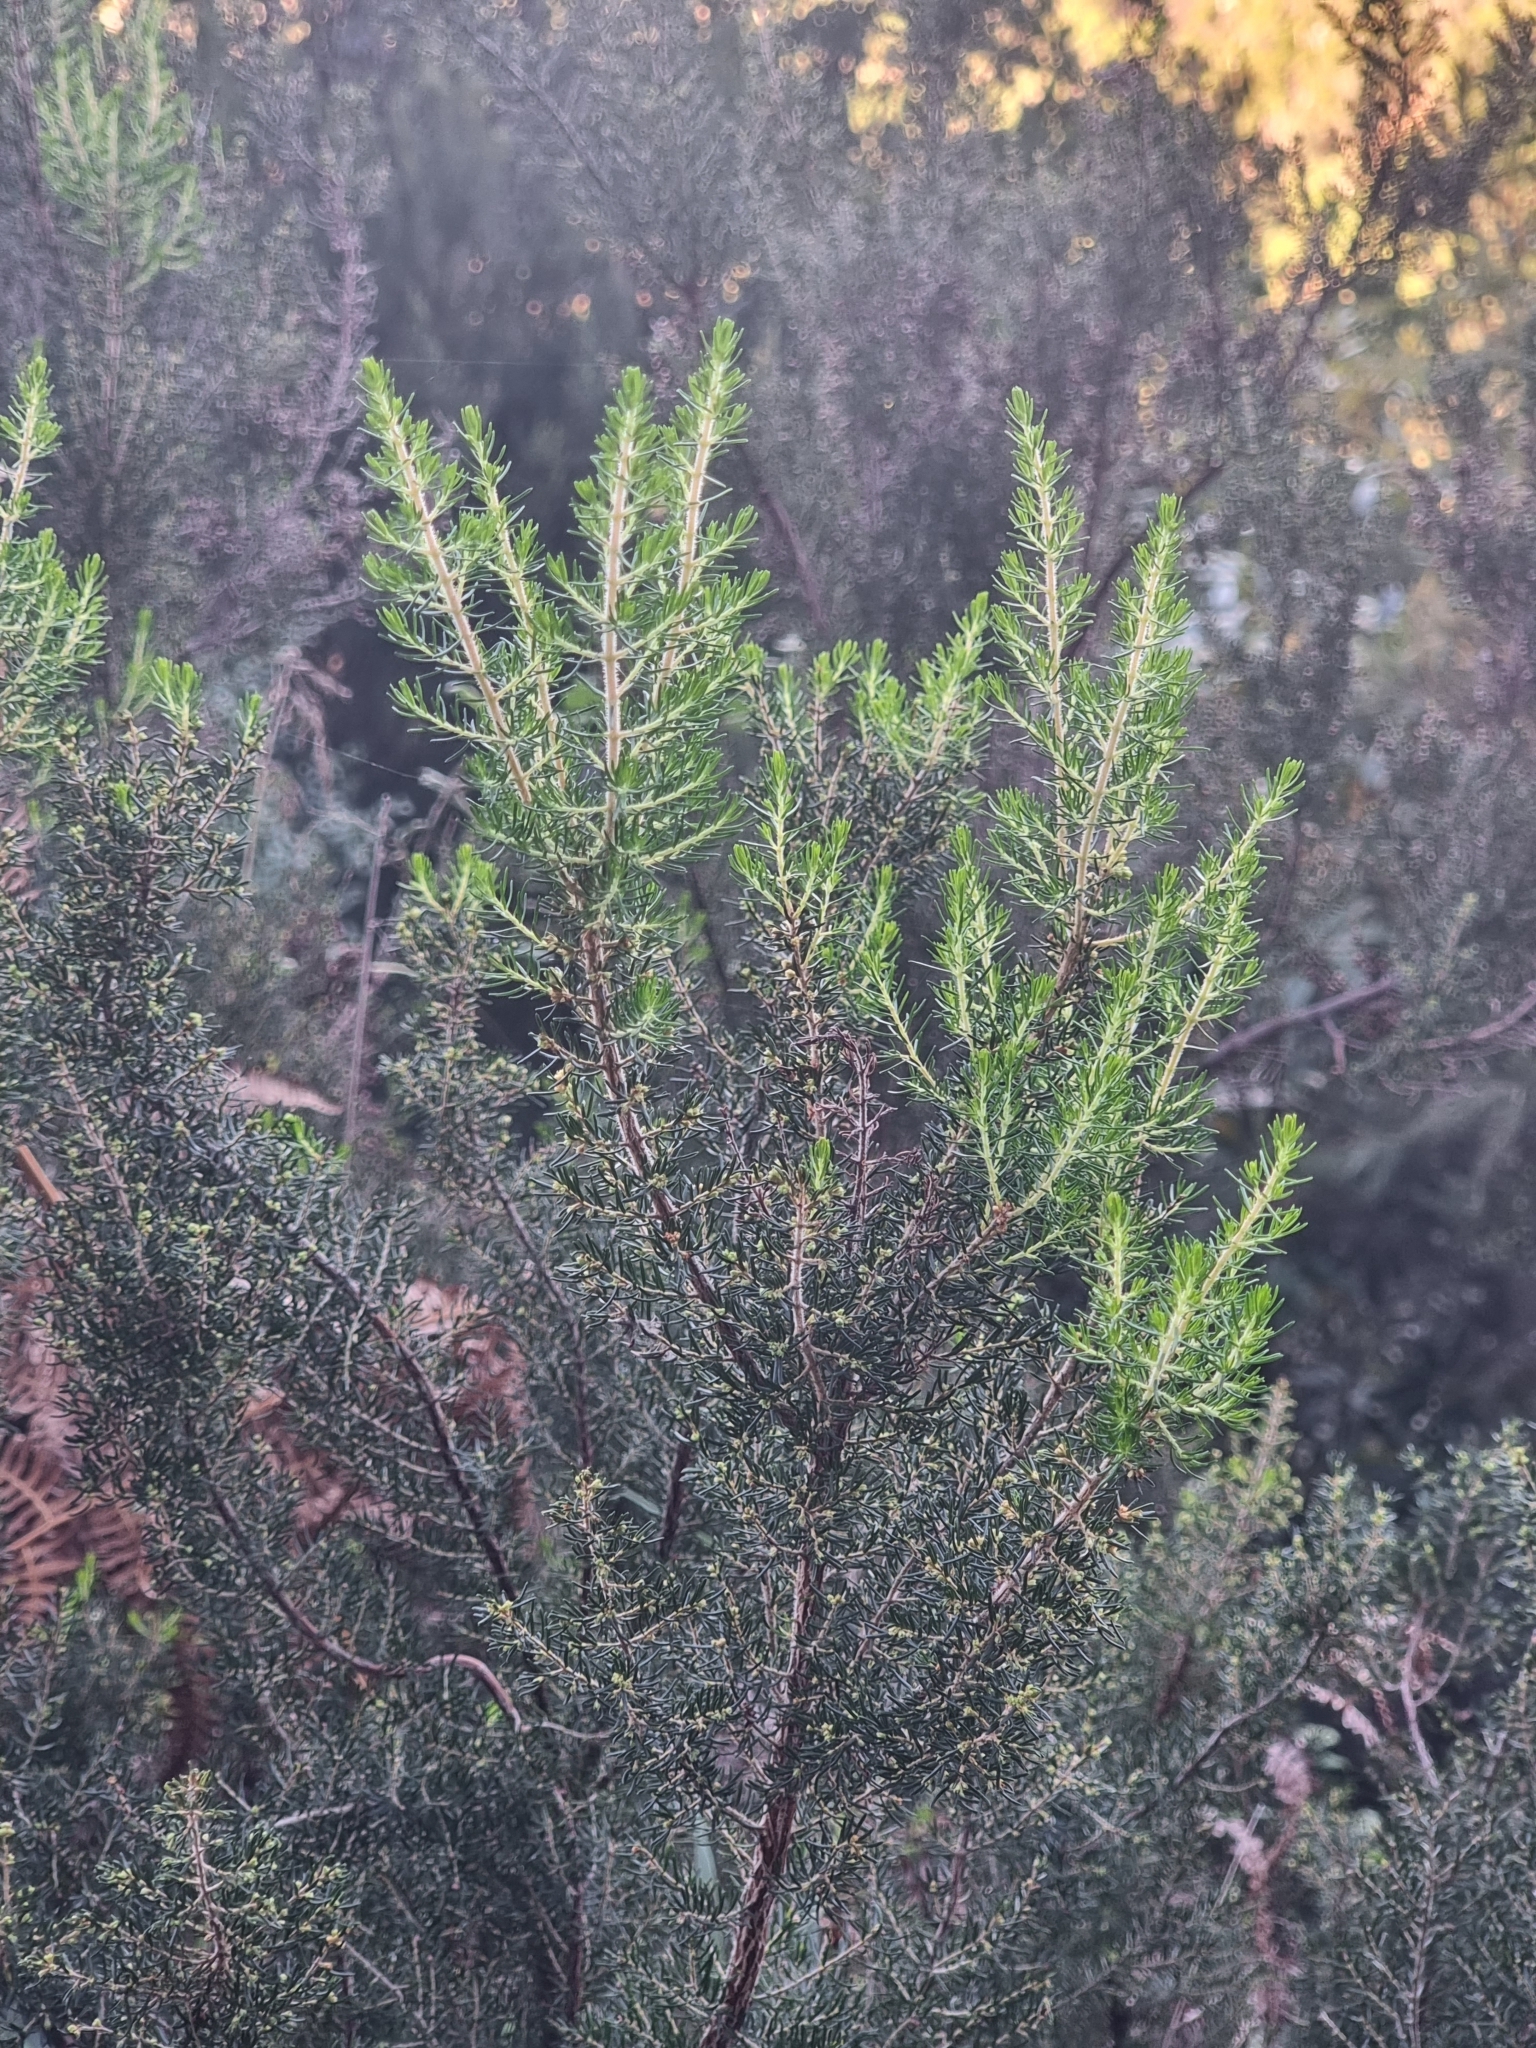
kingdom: Plantae
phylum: Tracheophyta
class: Magnoliopsida
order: Ericales
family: Ericaceae
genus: Erica
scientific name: Erica canariensis
